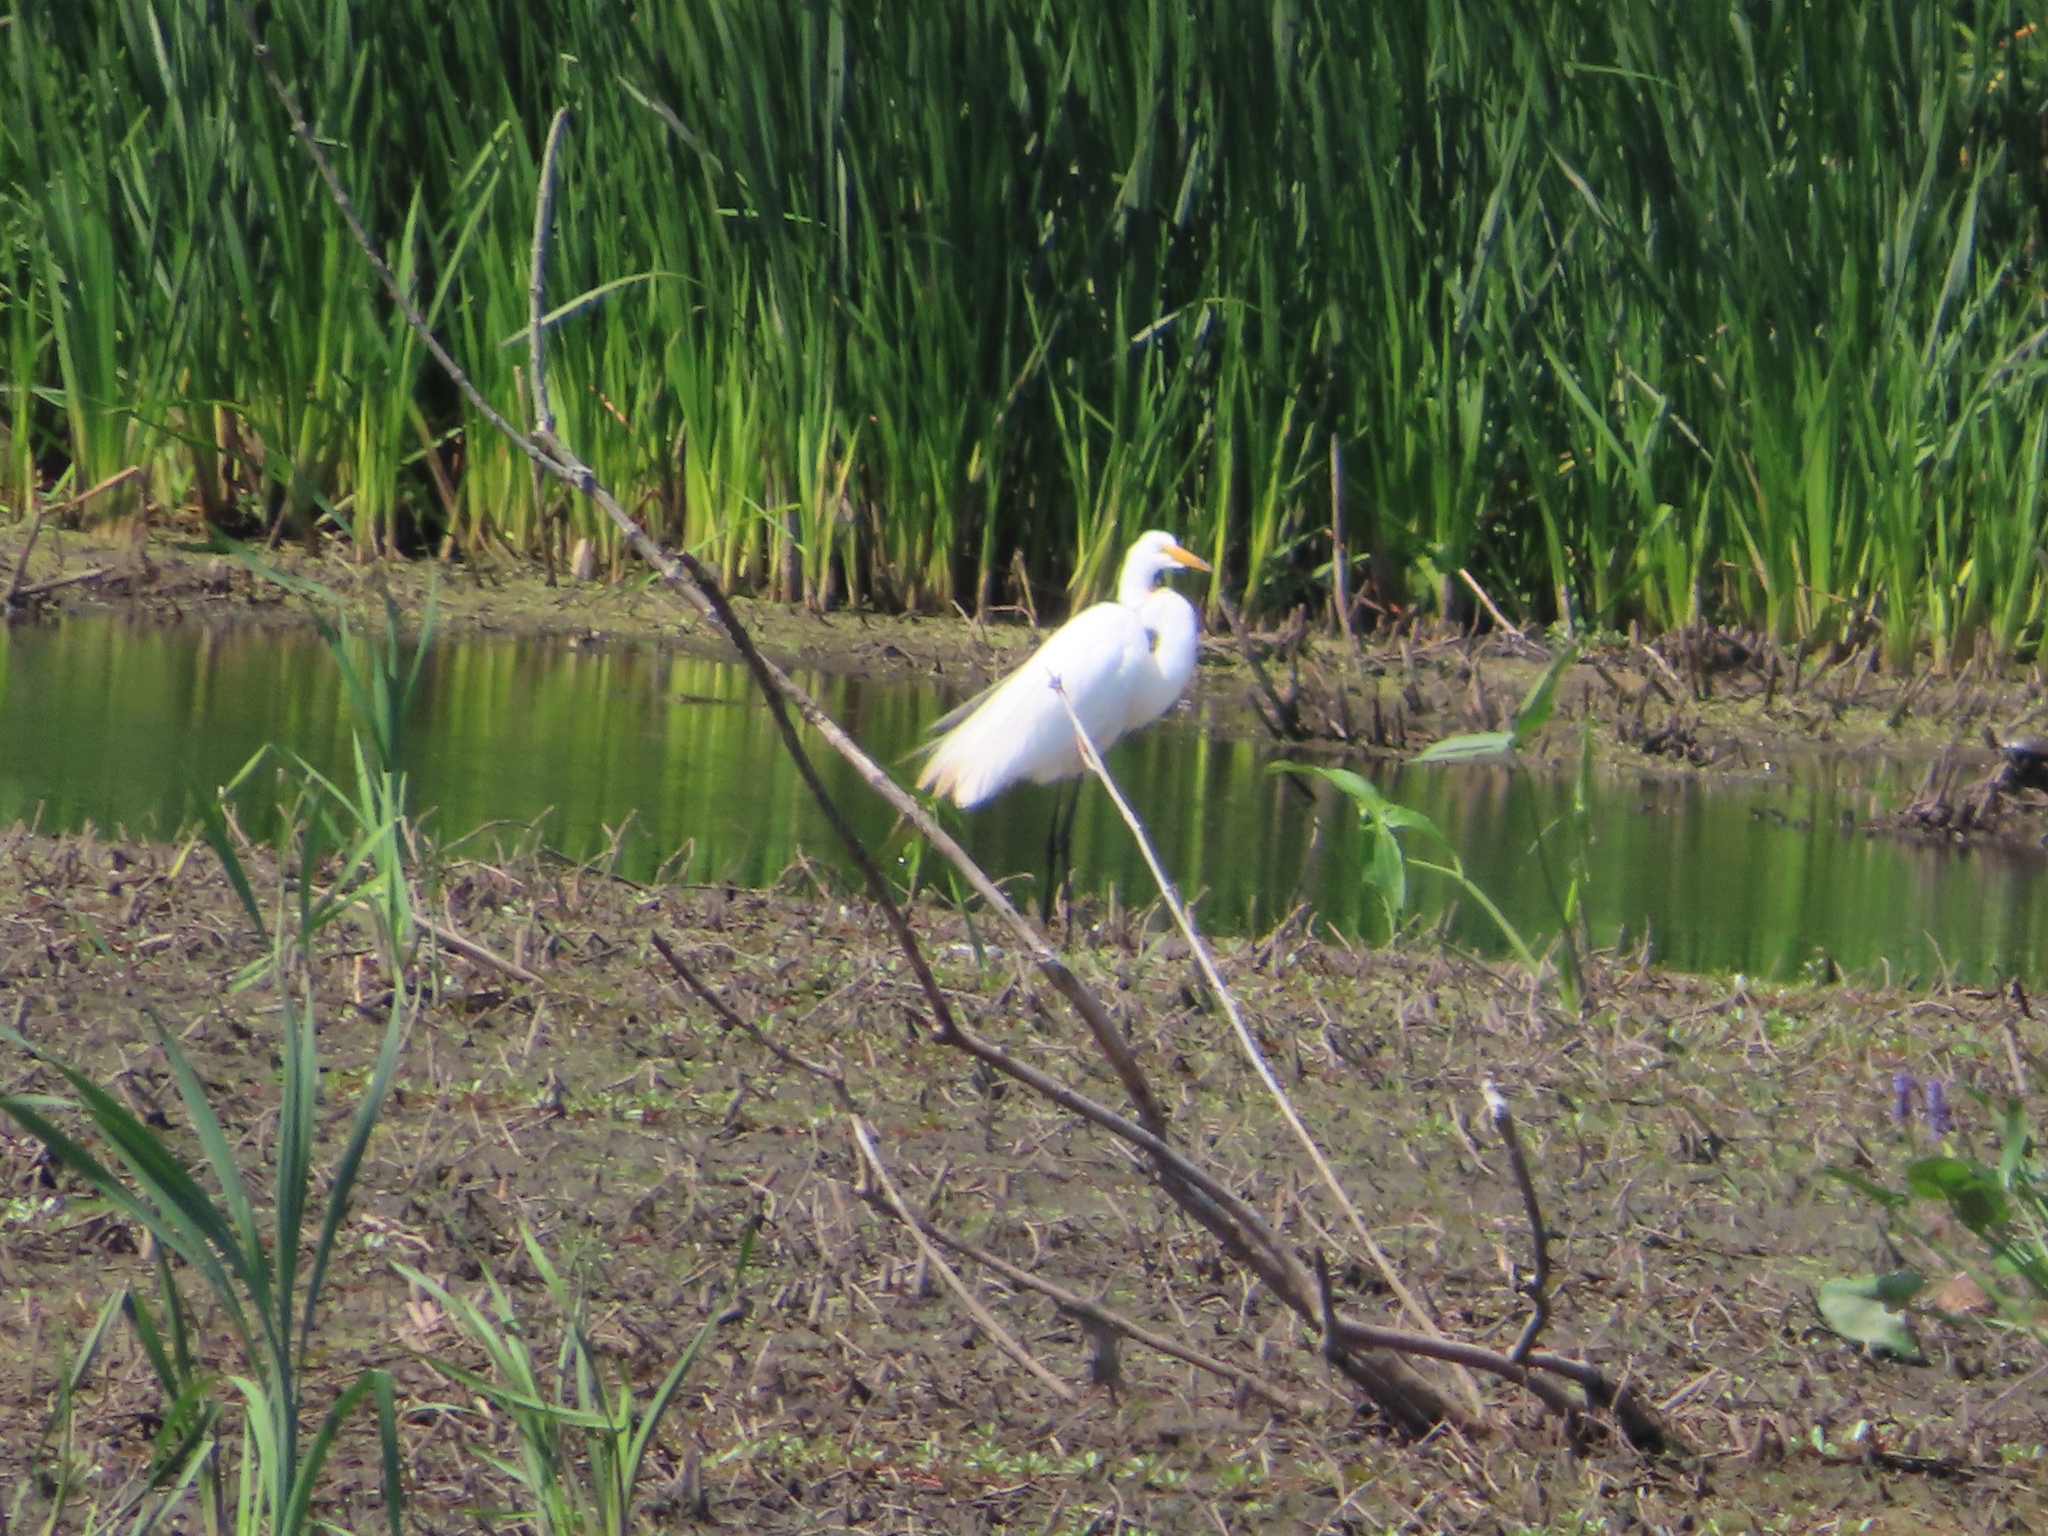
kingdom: Animalia
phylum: Chordata
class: Aves
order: Pelecaniformes
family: Ardeidae
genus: Ardea
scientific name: Ardea alba
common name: Great egret
